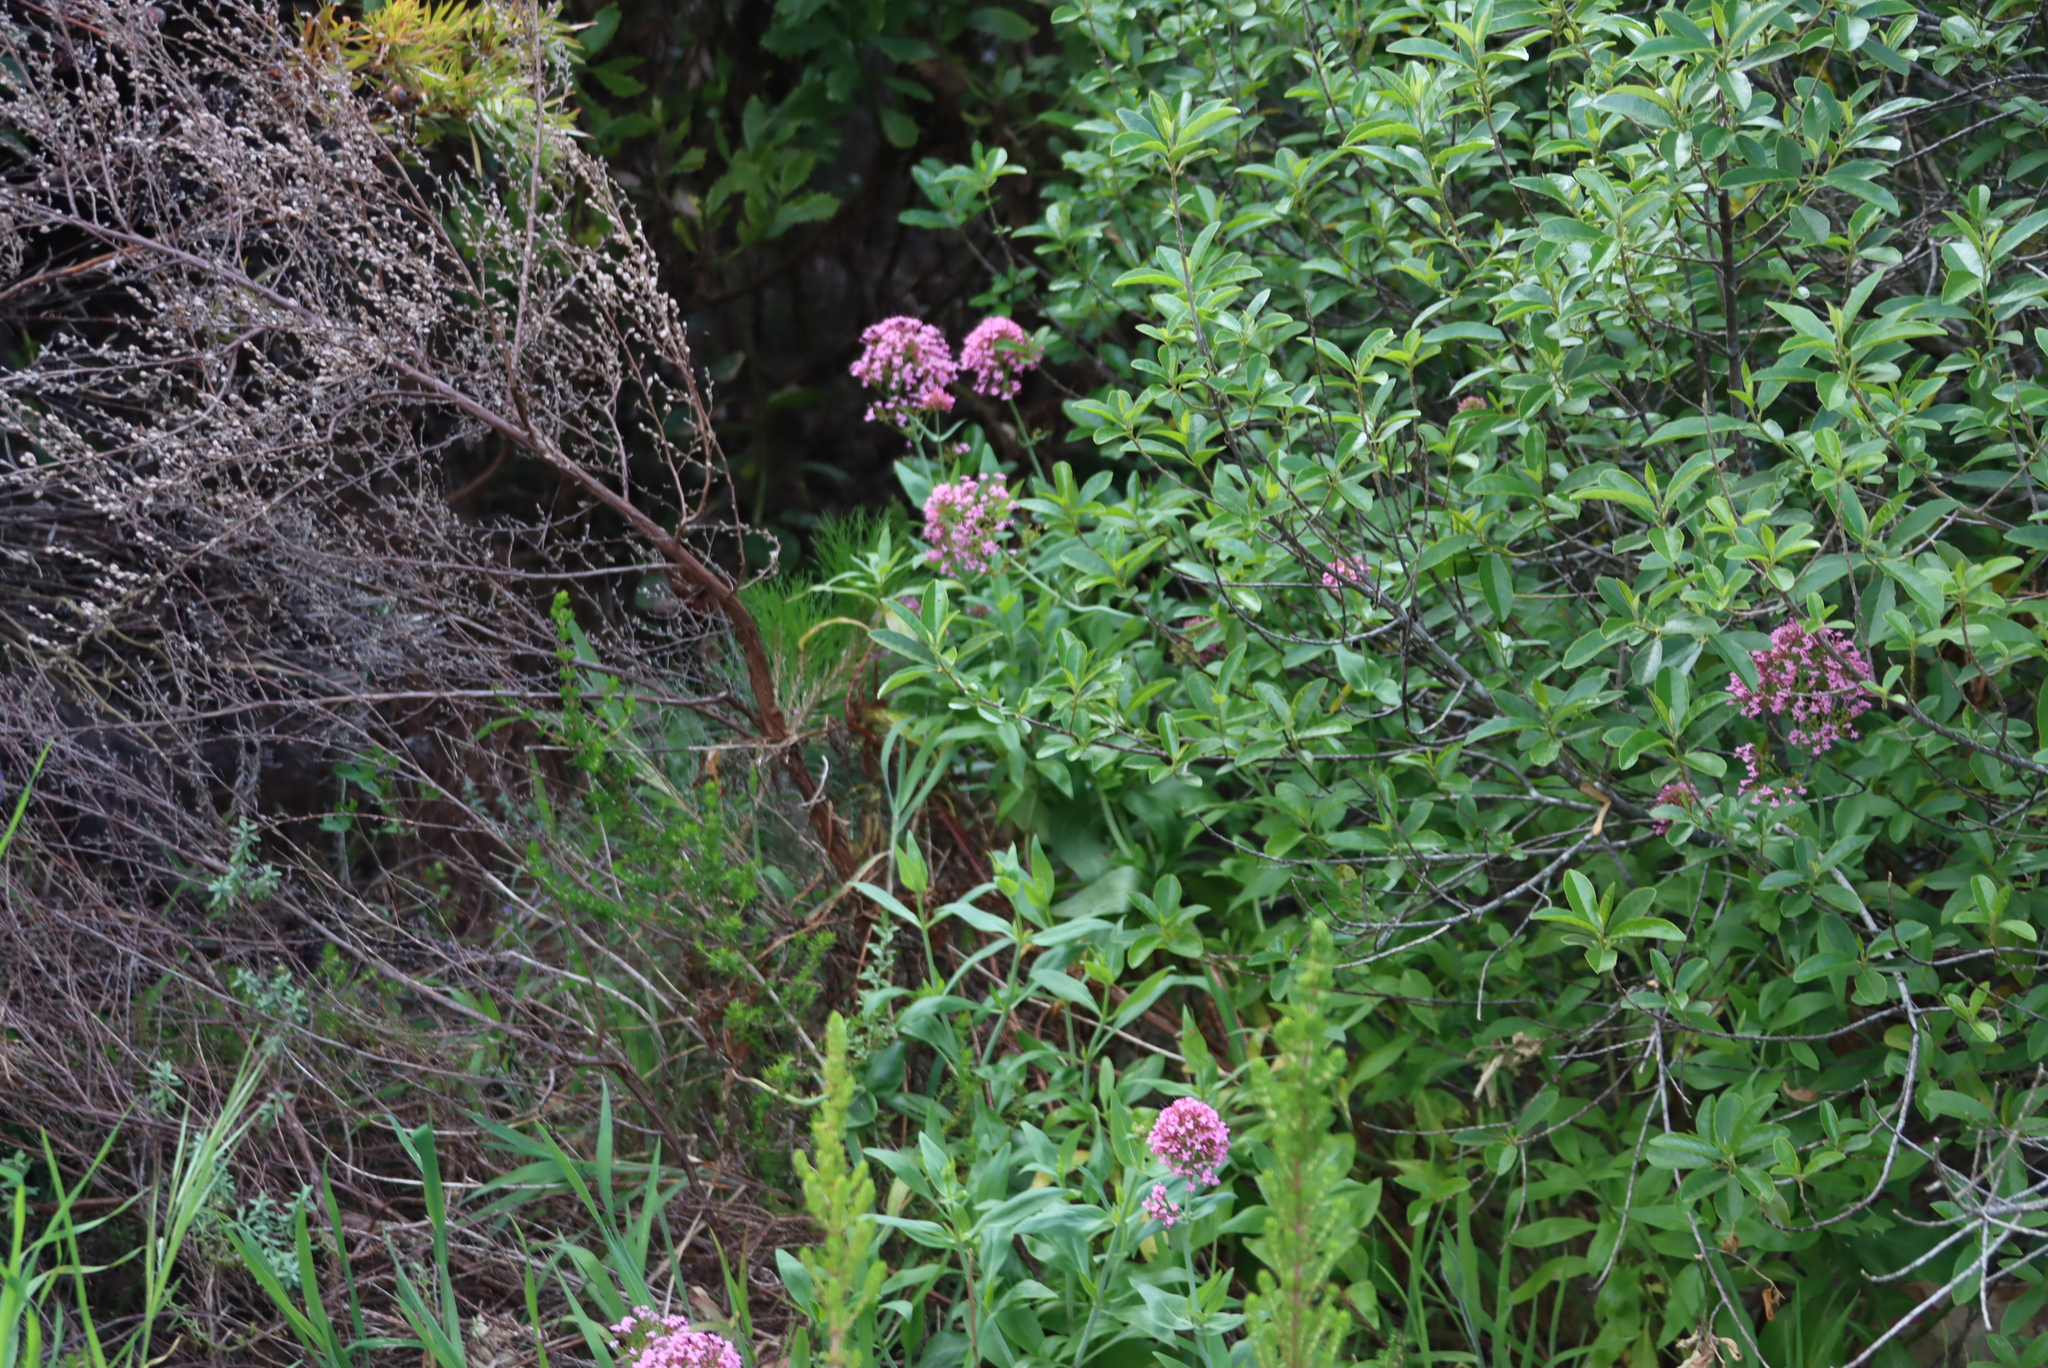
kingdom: Plantae
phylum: Tracheophyta
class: Magnoliopsida
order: Dipsacales
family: Caprifoliaceae
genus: Centranthus
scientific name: Centranthus ruber
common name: Red valerian
